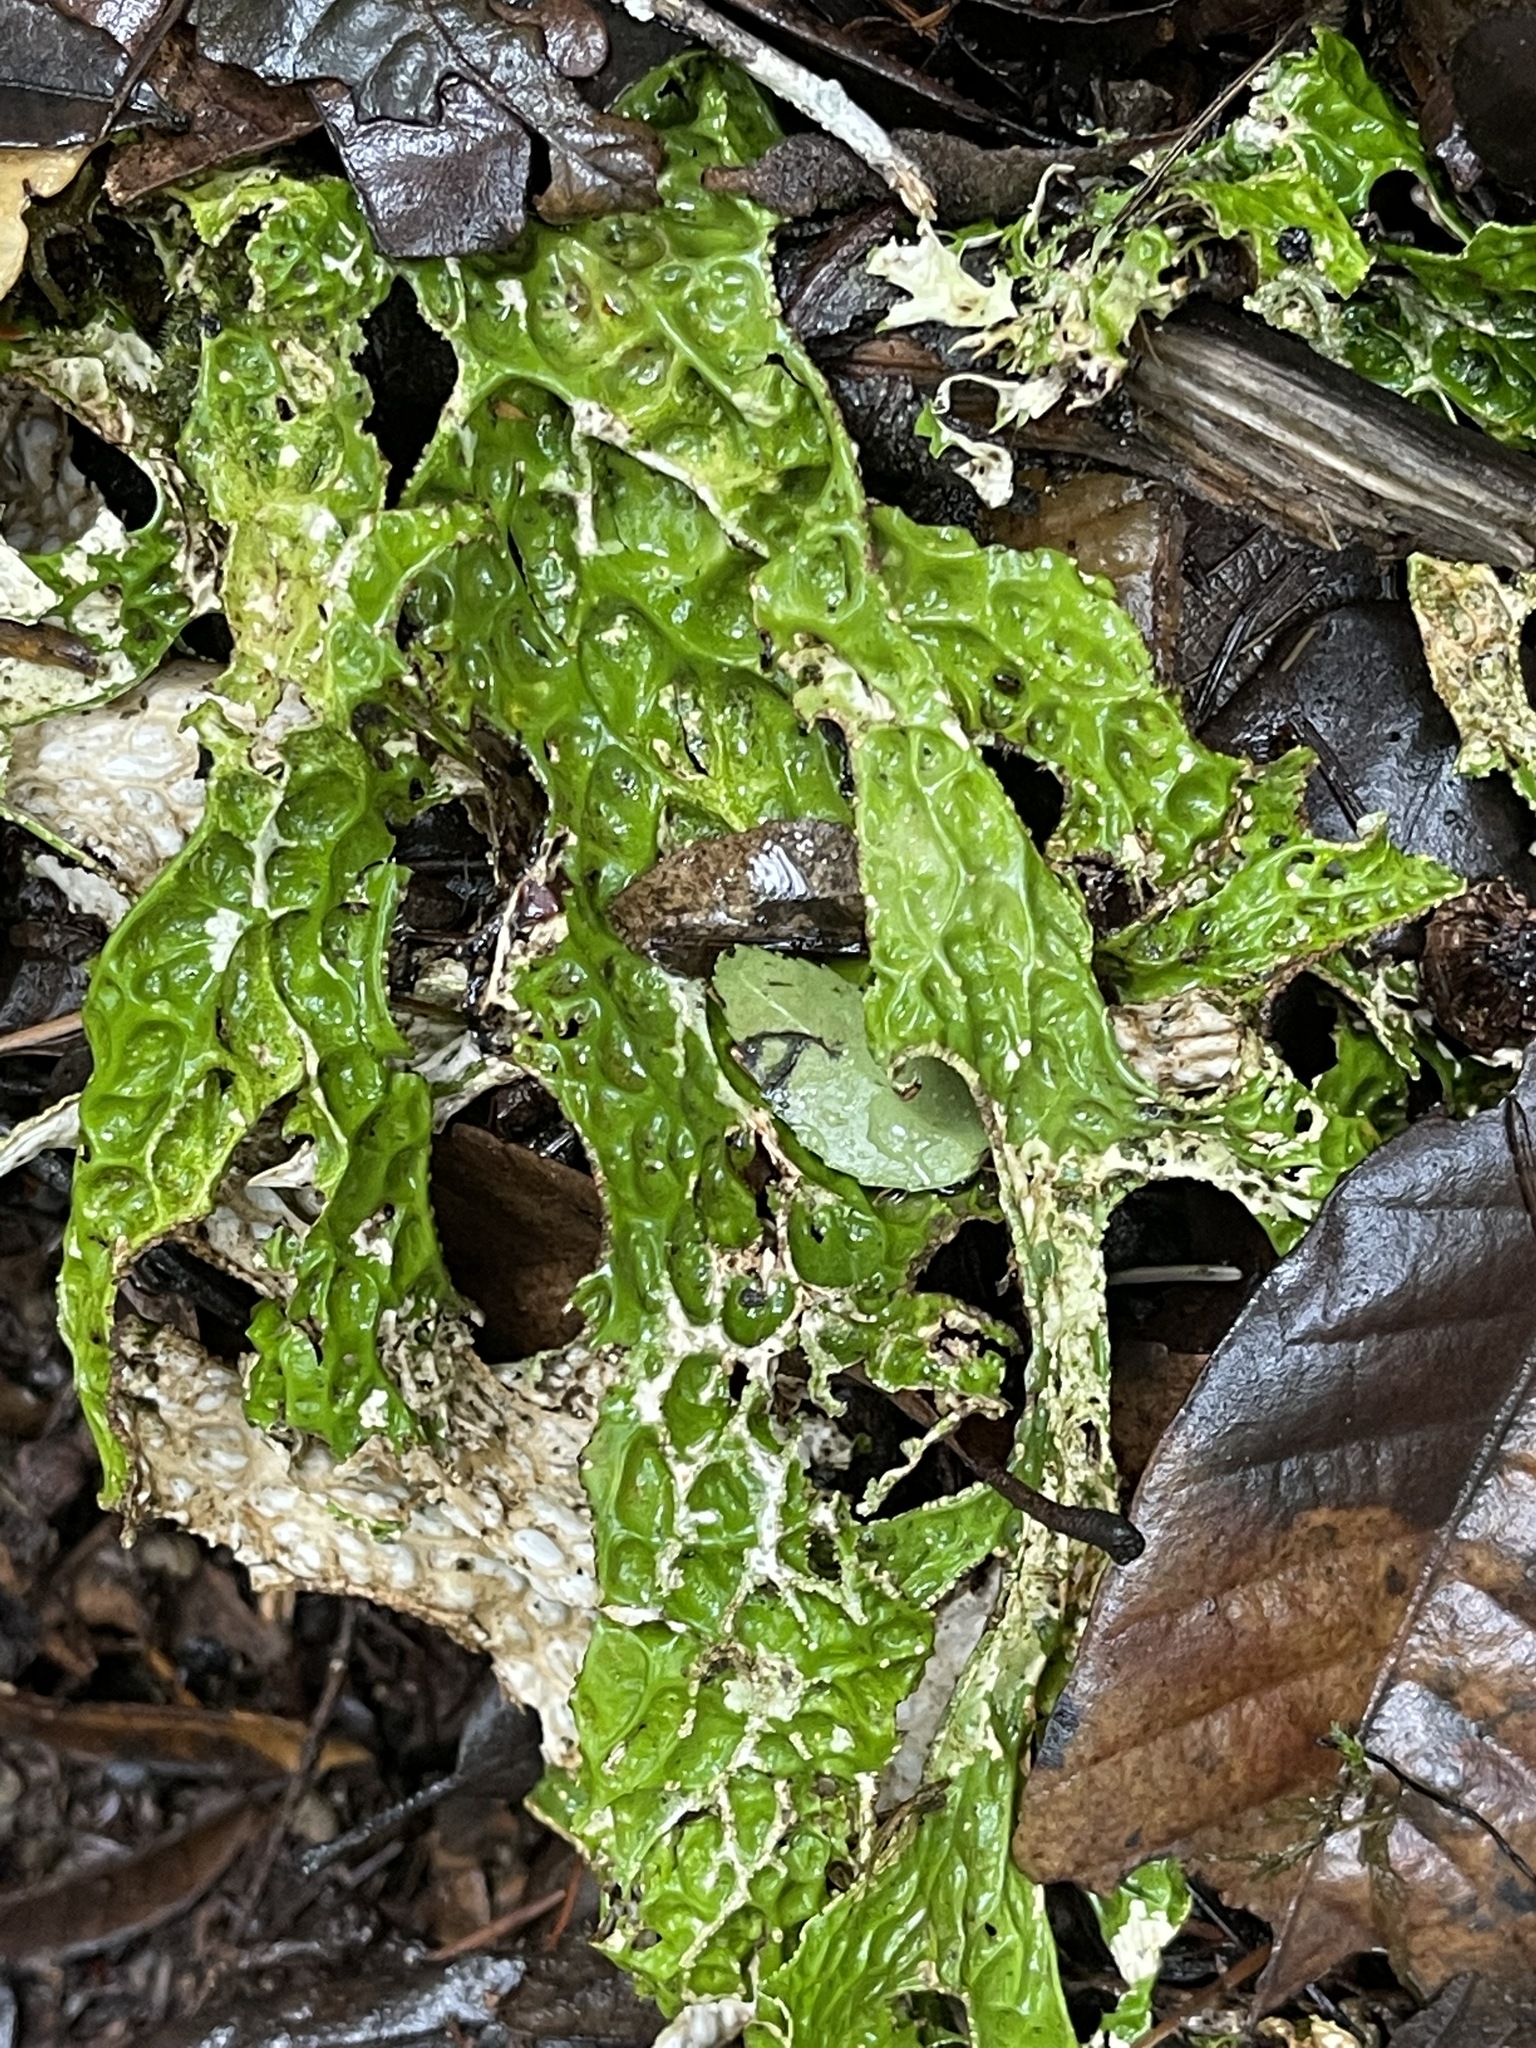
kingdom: Fungi
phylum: Ascomycota
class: Lecanoromycetes
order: Peltigerales
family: Lobariaceae
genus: Lobaria
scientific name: Lobaria pulmonaria
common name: Lungwort
